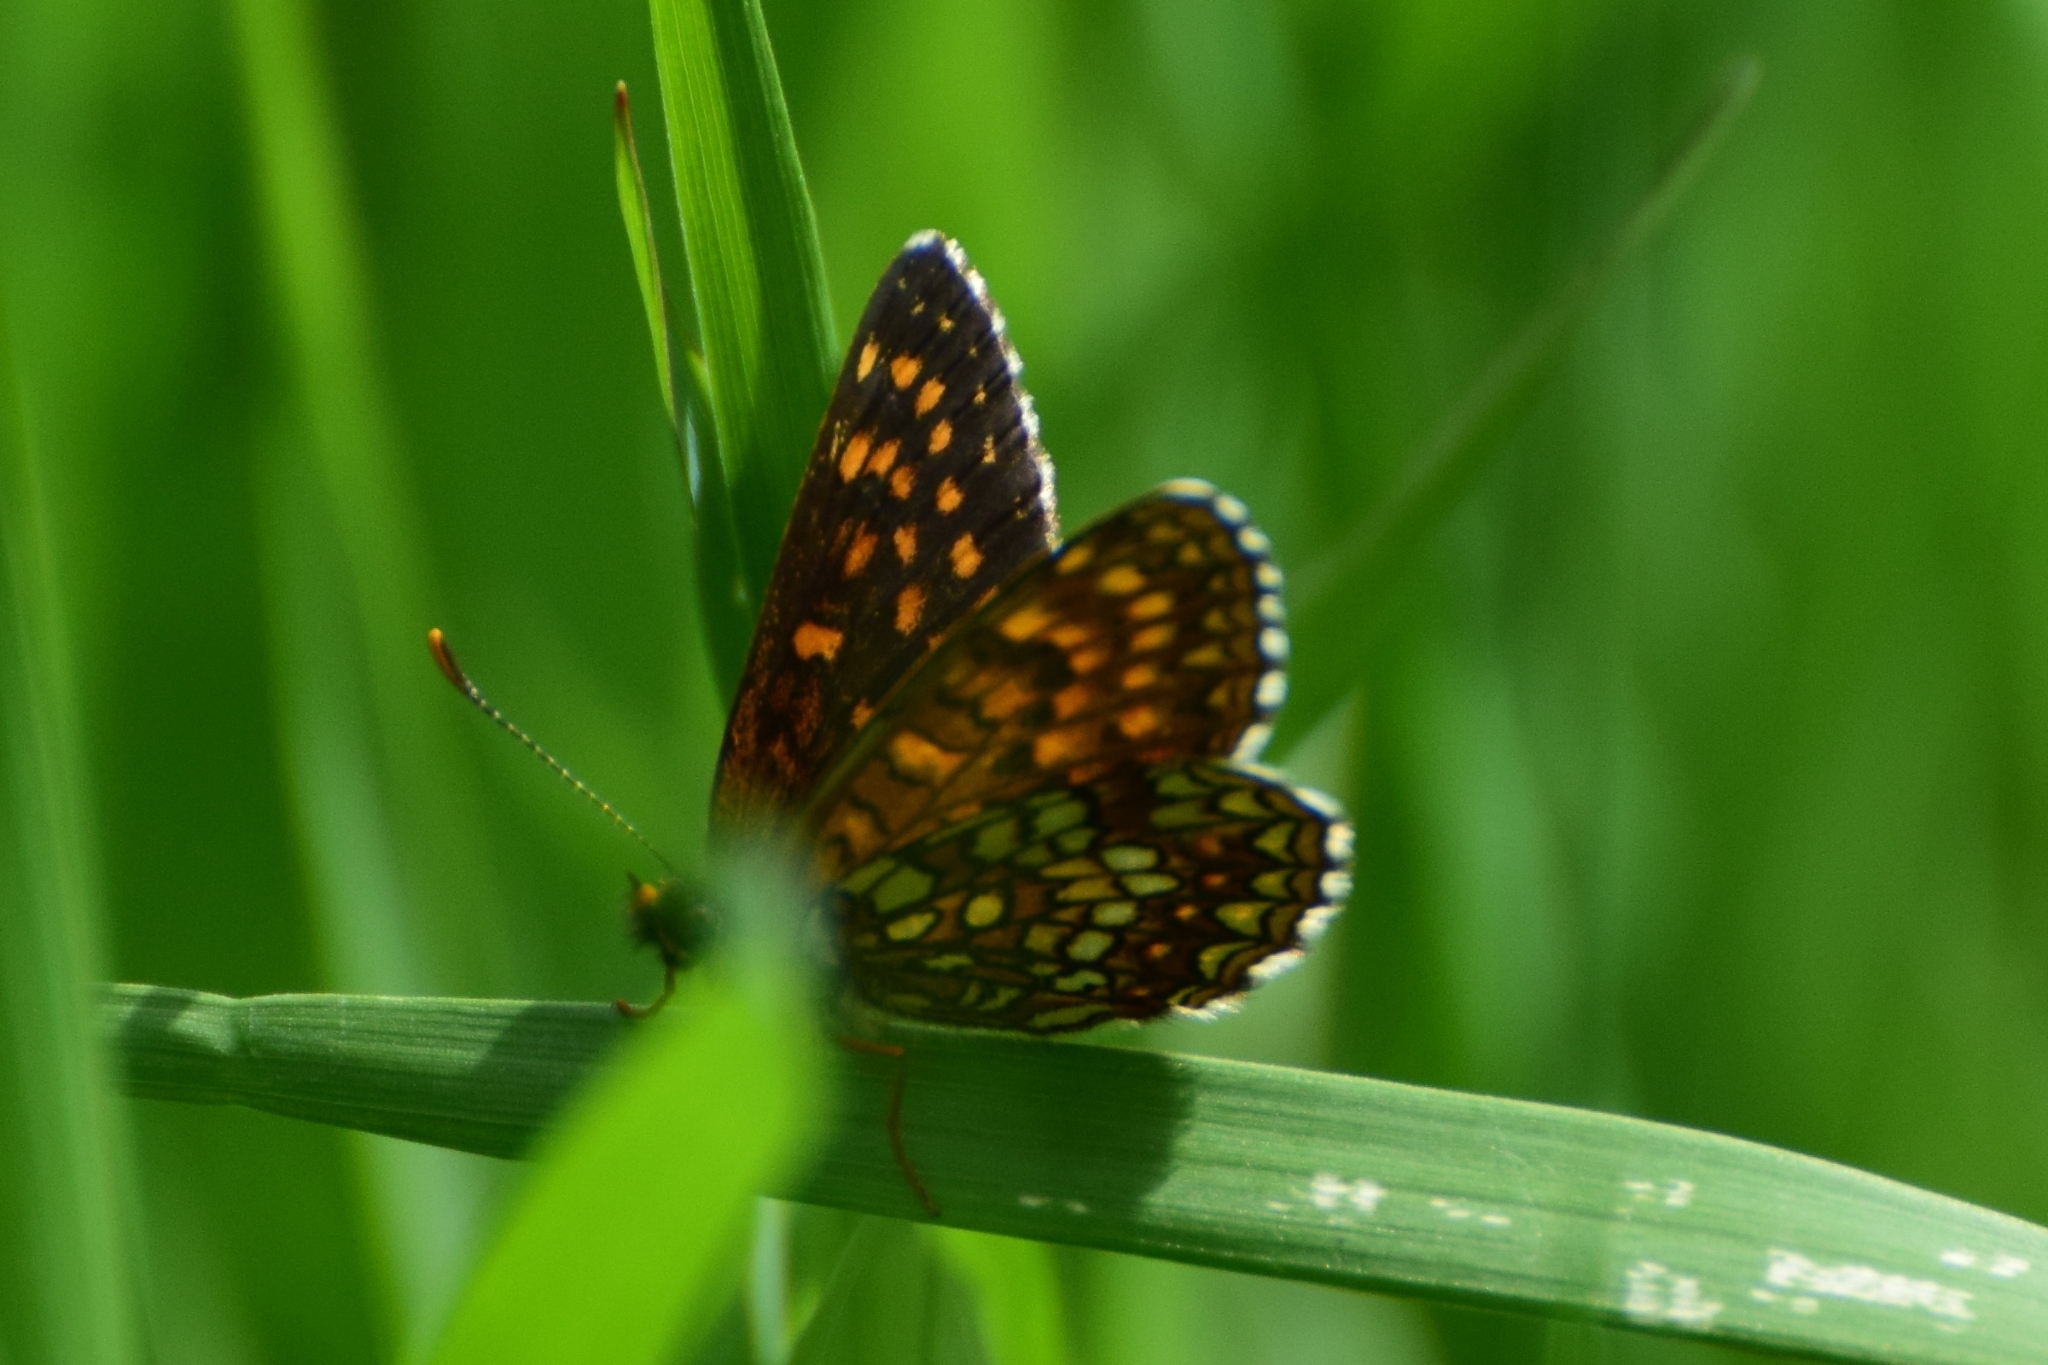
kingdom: Animalia
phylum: Arthropoda
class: Insecta
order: Lepidoptera
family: Nymphalidae
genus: Melitaea
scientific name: Melitaea diamina
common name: False heath fritillary
